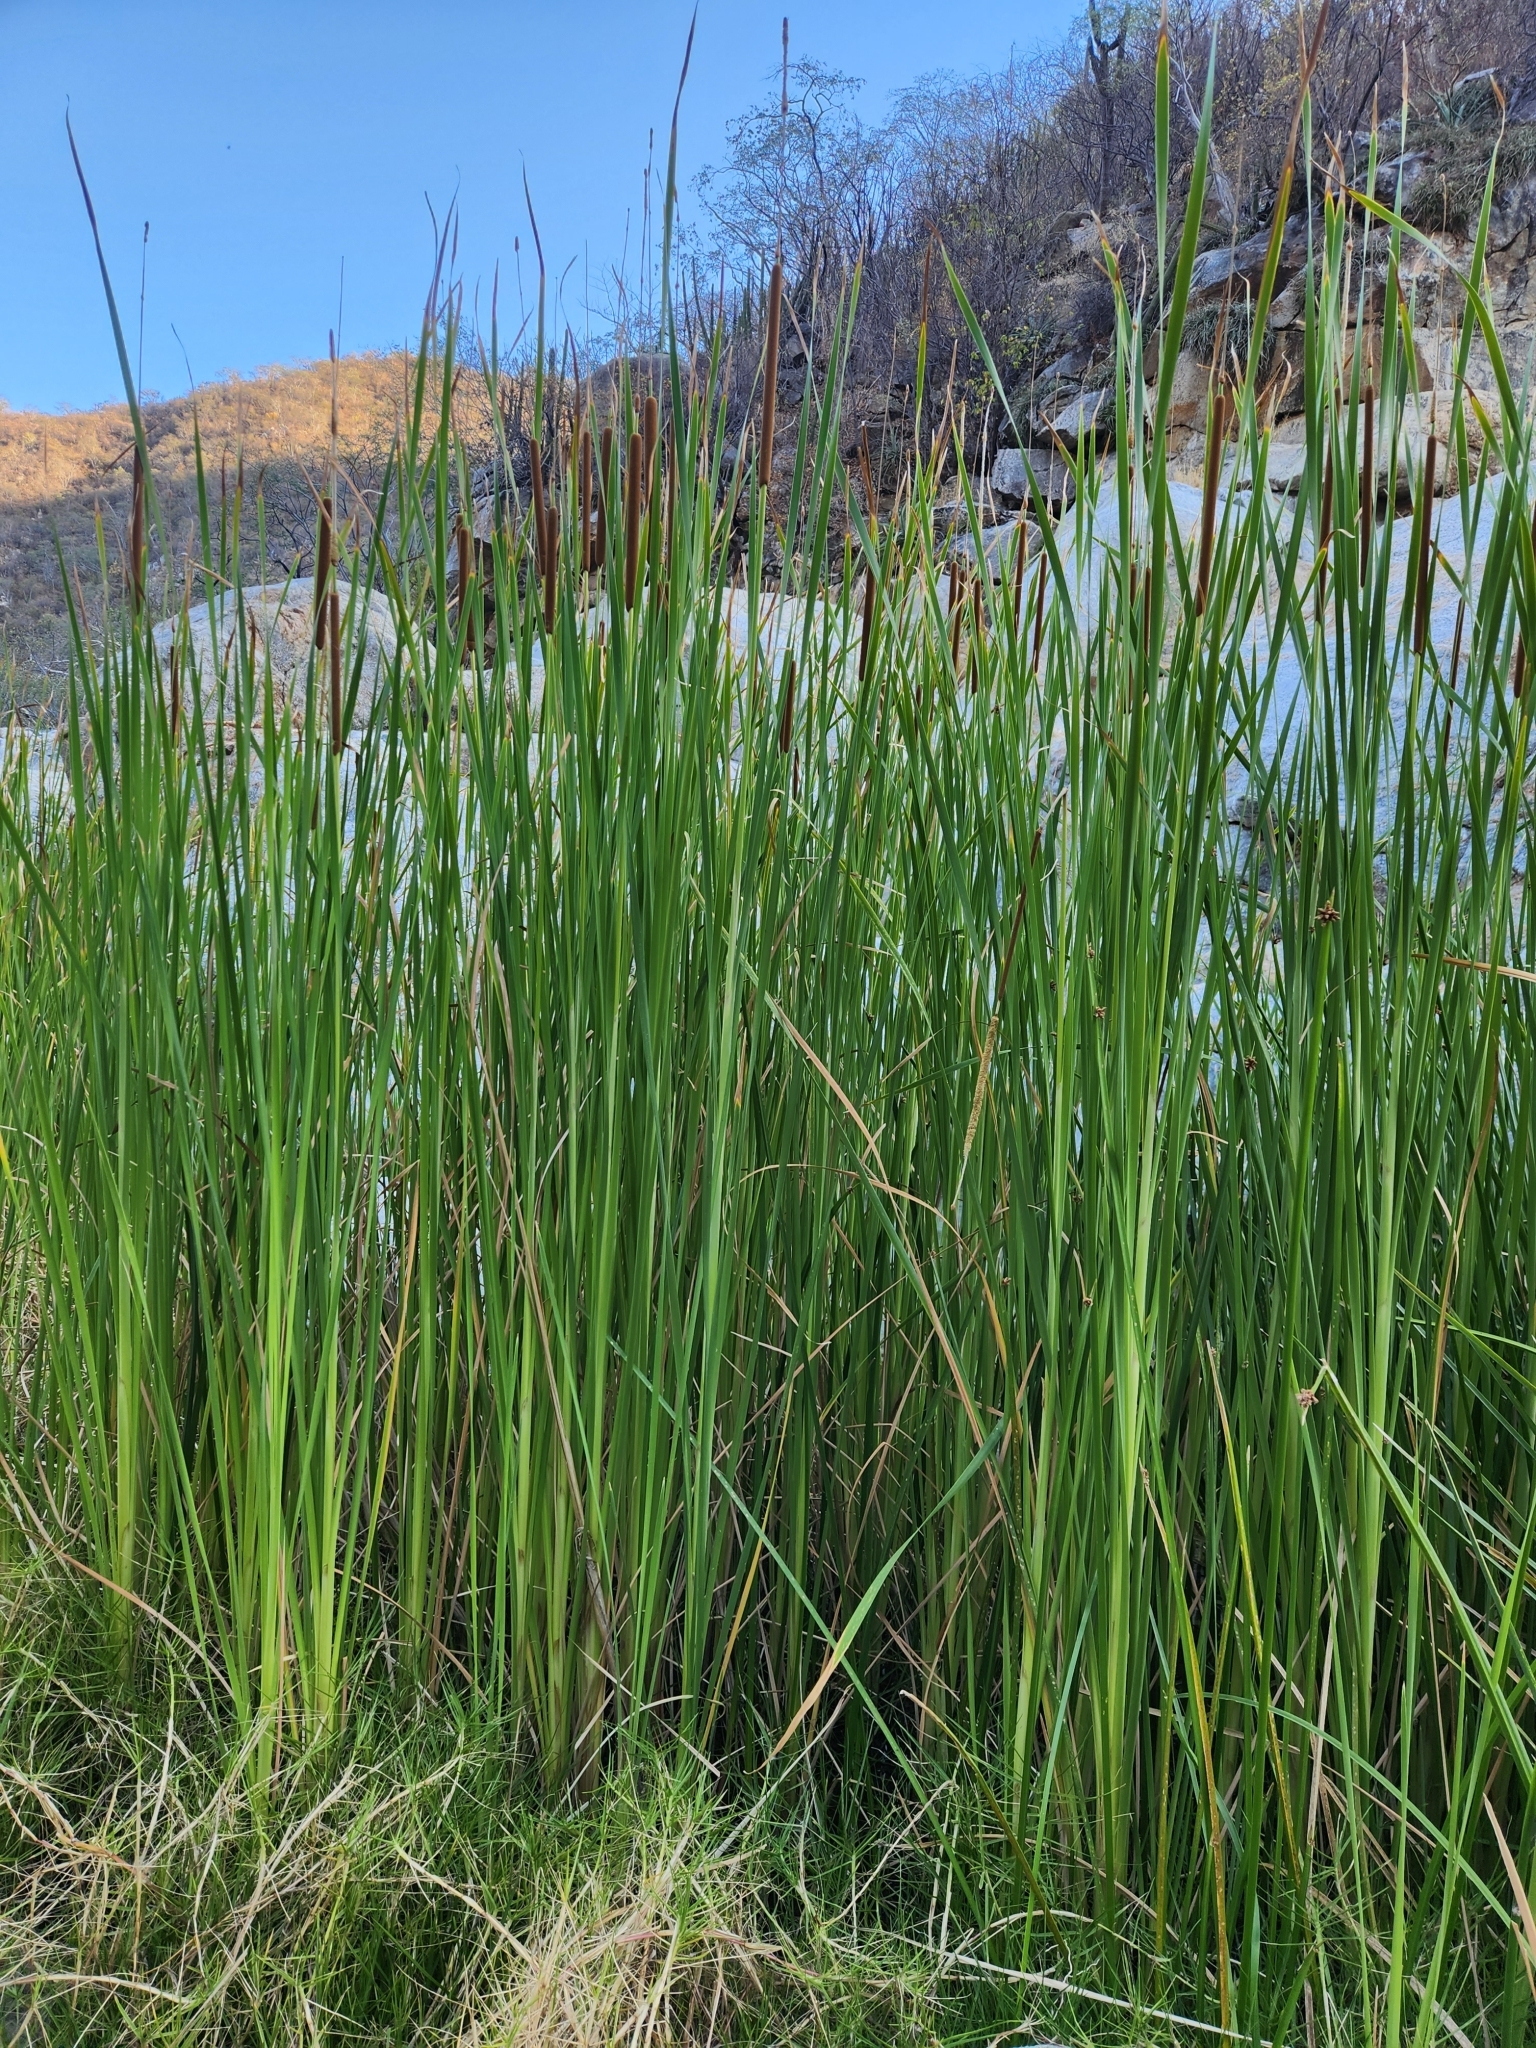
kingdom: Plantae
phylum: Tracheophyta
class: Liliopsida
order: Poales
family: Typhaceae
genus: Typha
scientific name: Typha domingensis
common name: Southern cattail
